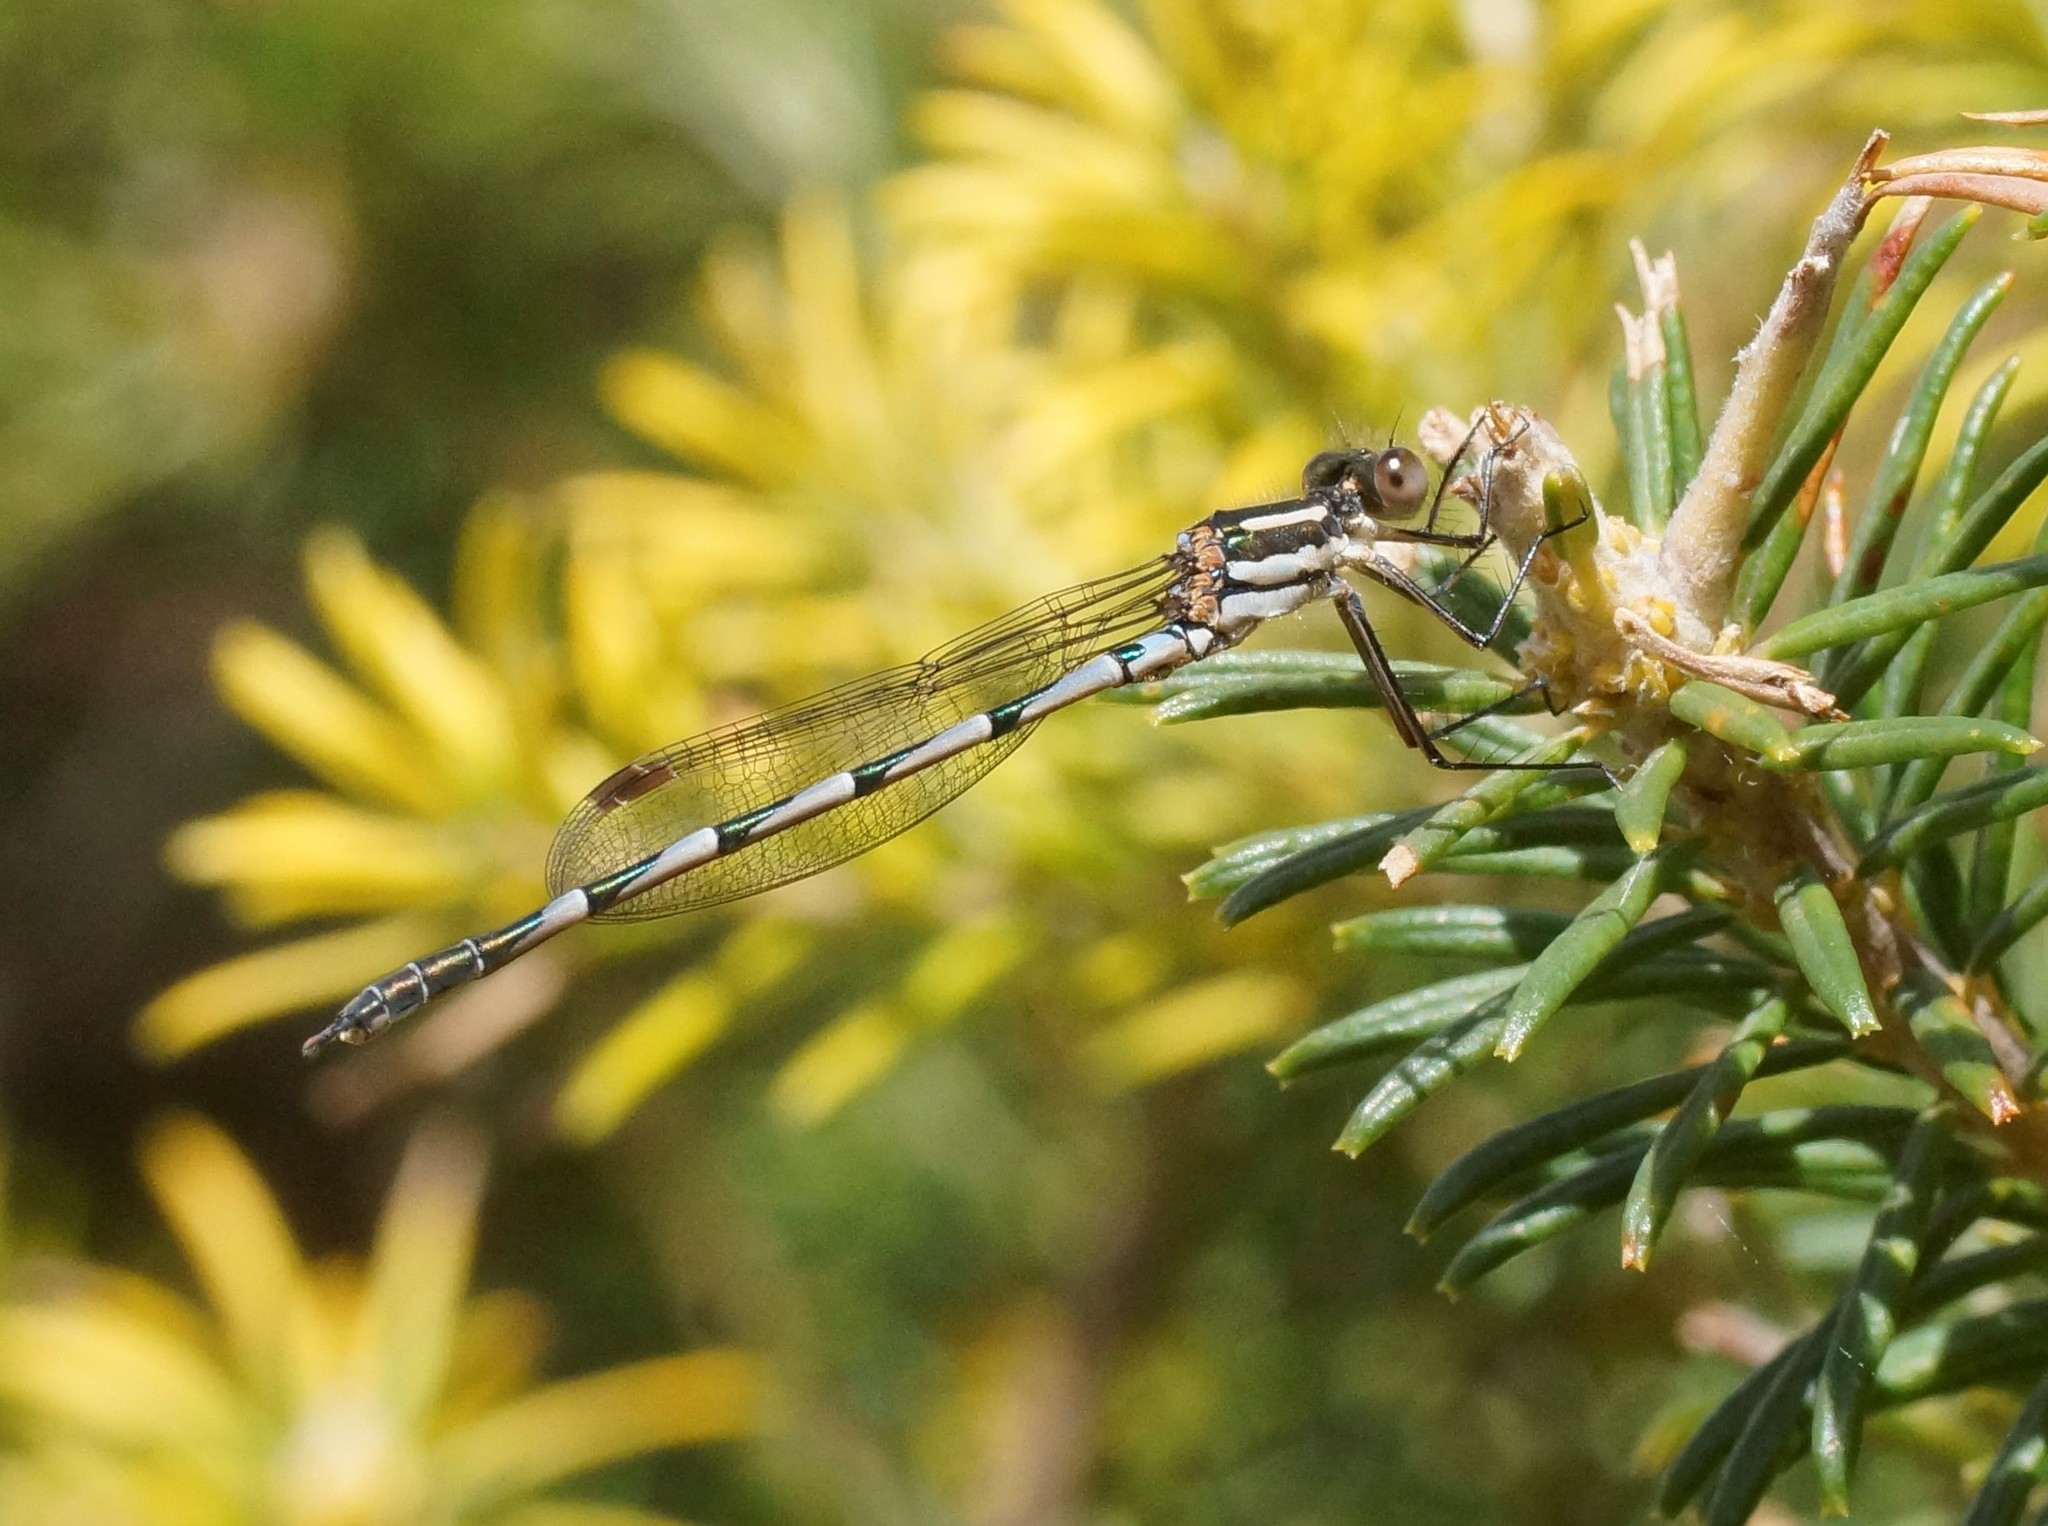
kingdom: Animalia
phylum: Arthropoda
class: Insecta
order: Odonata
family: Lestidae
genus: Austrolestes
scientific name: Austrolestes annulosus
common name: Blue ringtail
